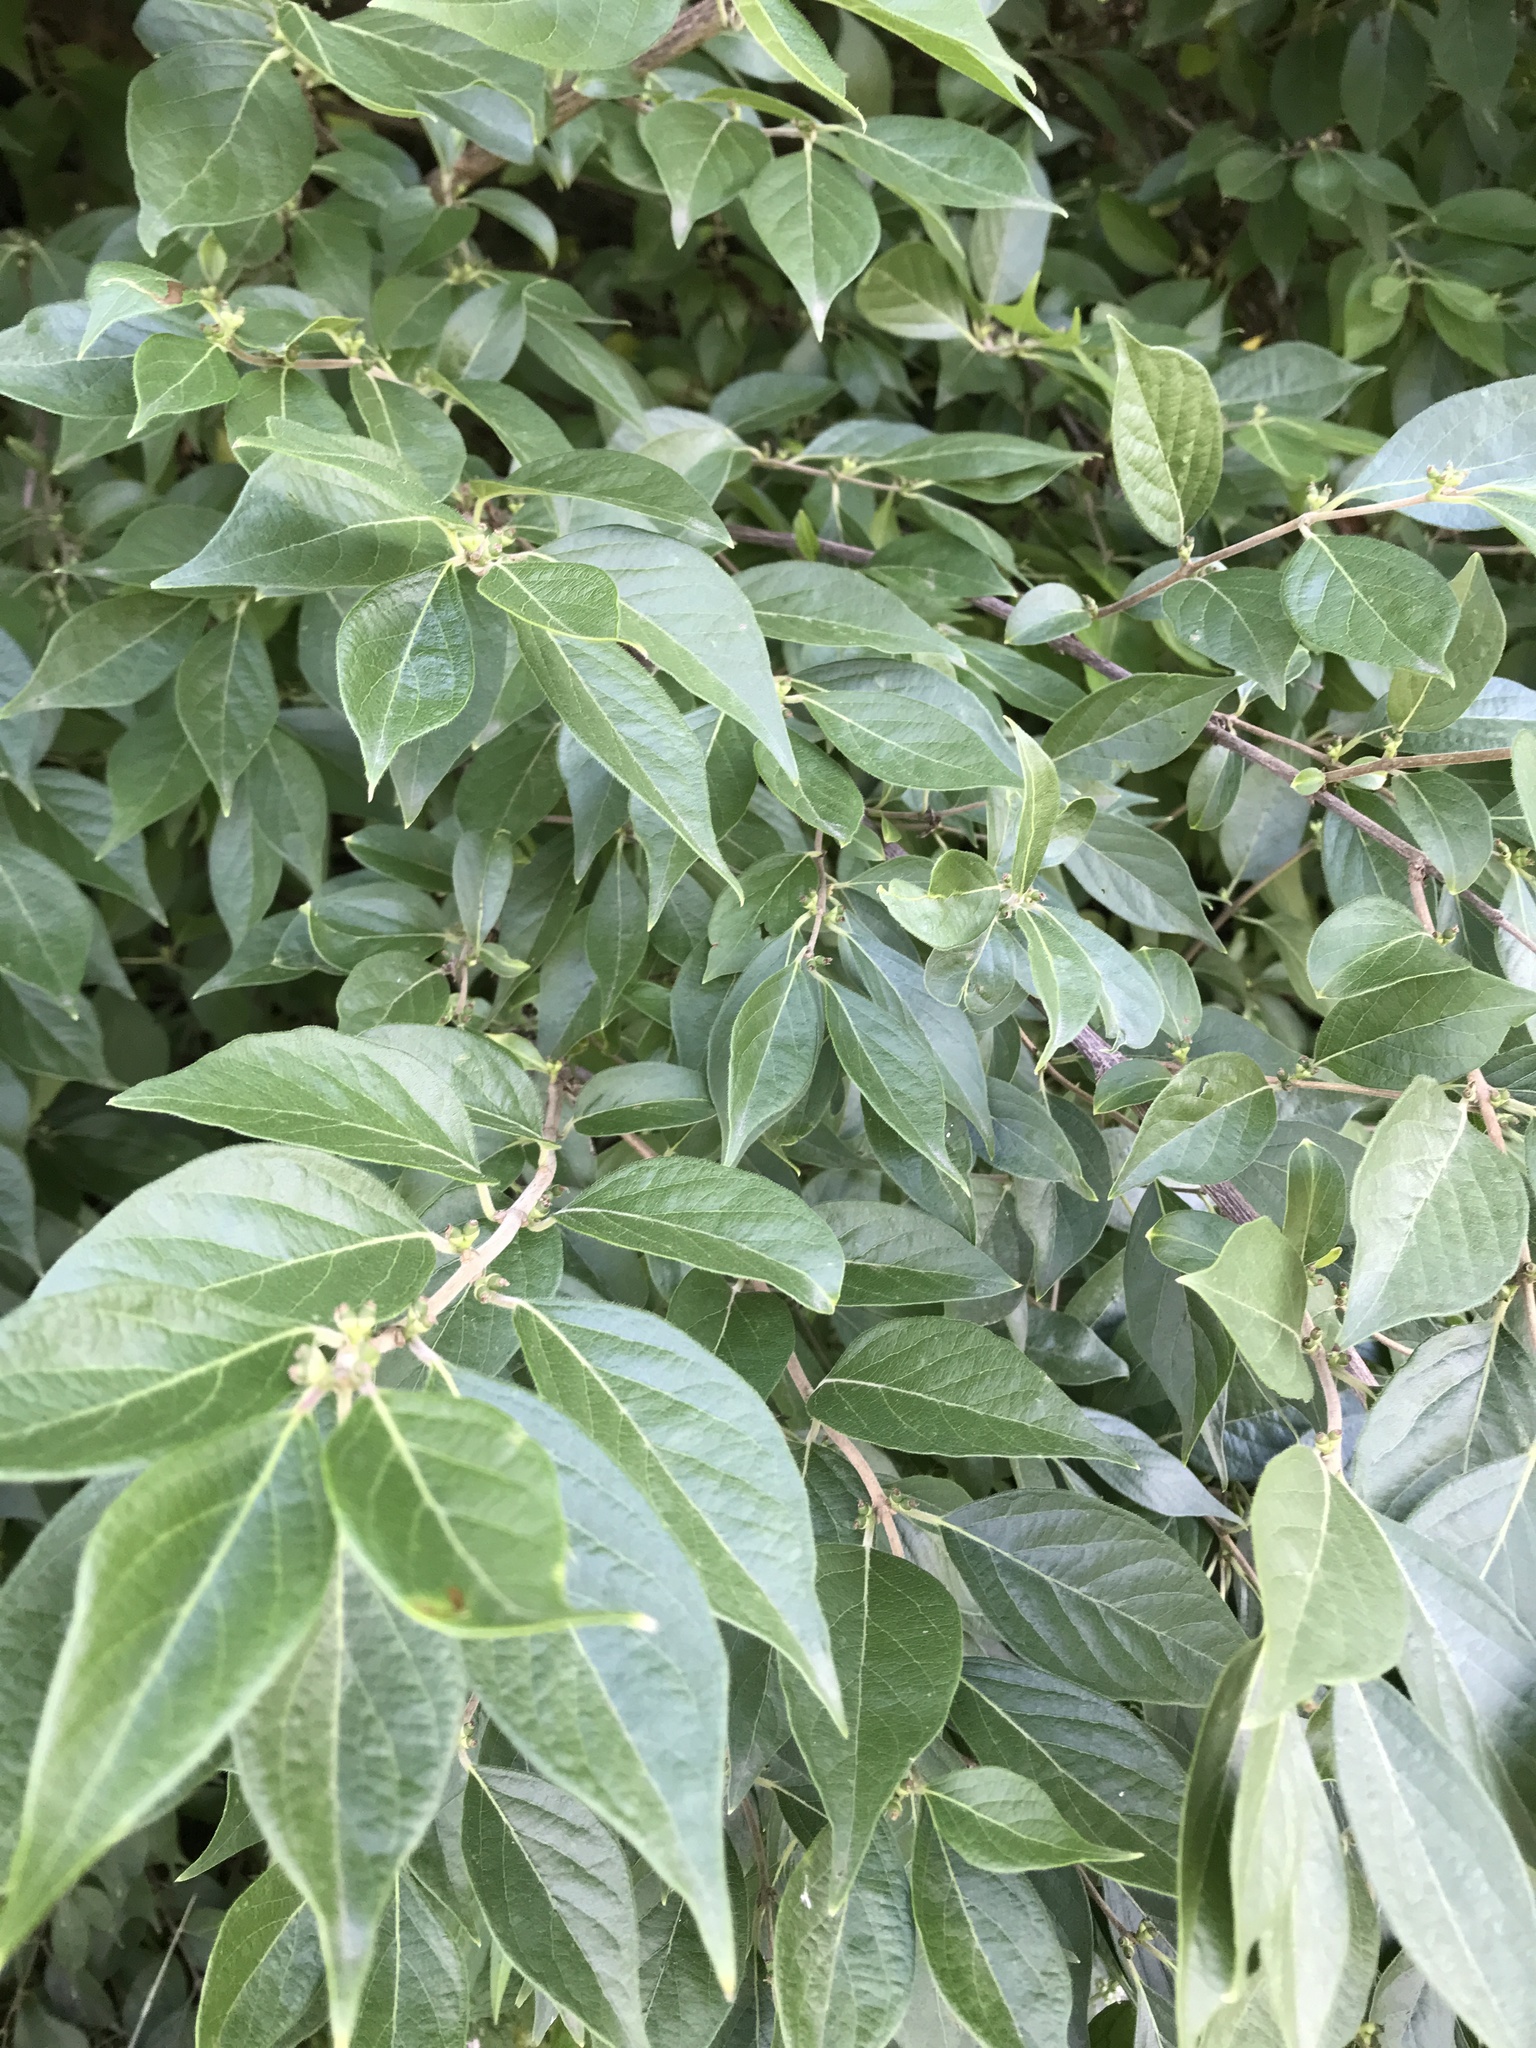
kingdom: Plantae
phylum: Tracheophyta
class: Magnoliopsida
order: Dipsacales
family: Caprifoliaceae
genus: Lonicera
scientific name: Lonicera maackii
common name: Amur honeysuckle
